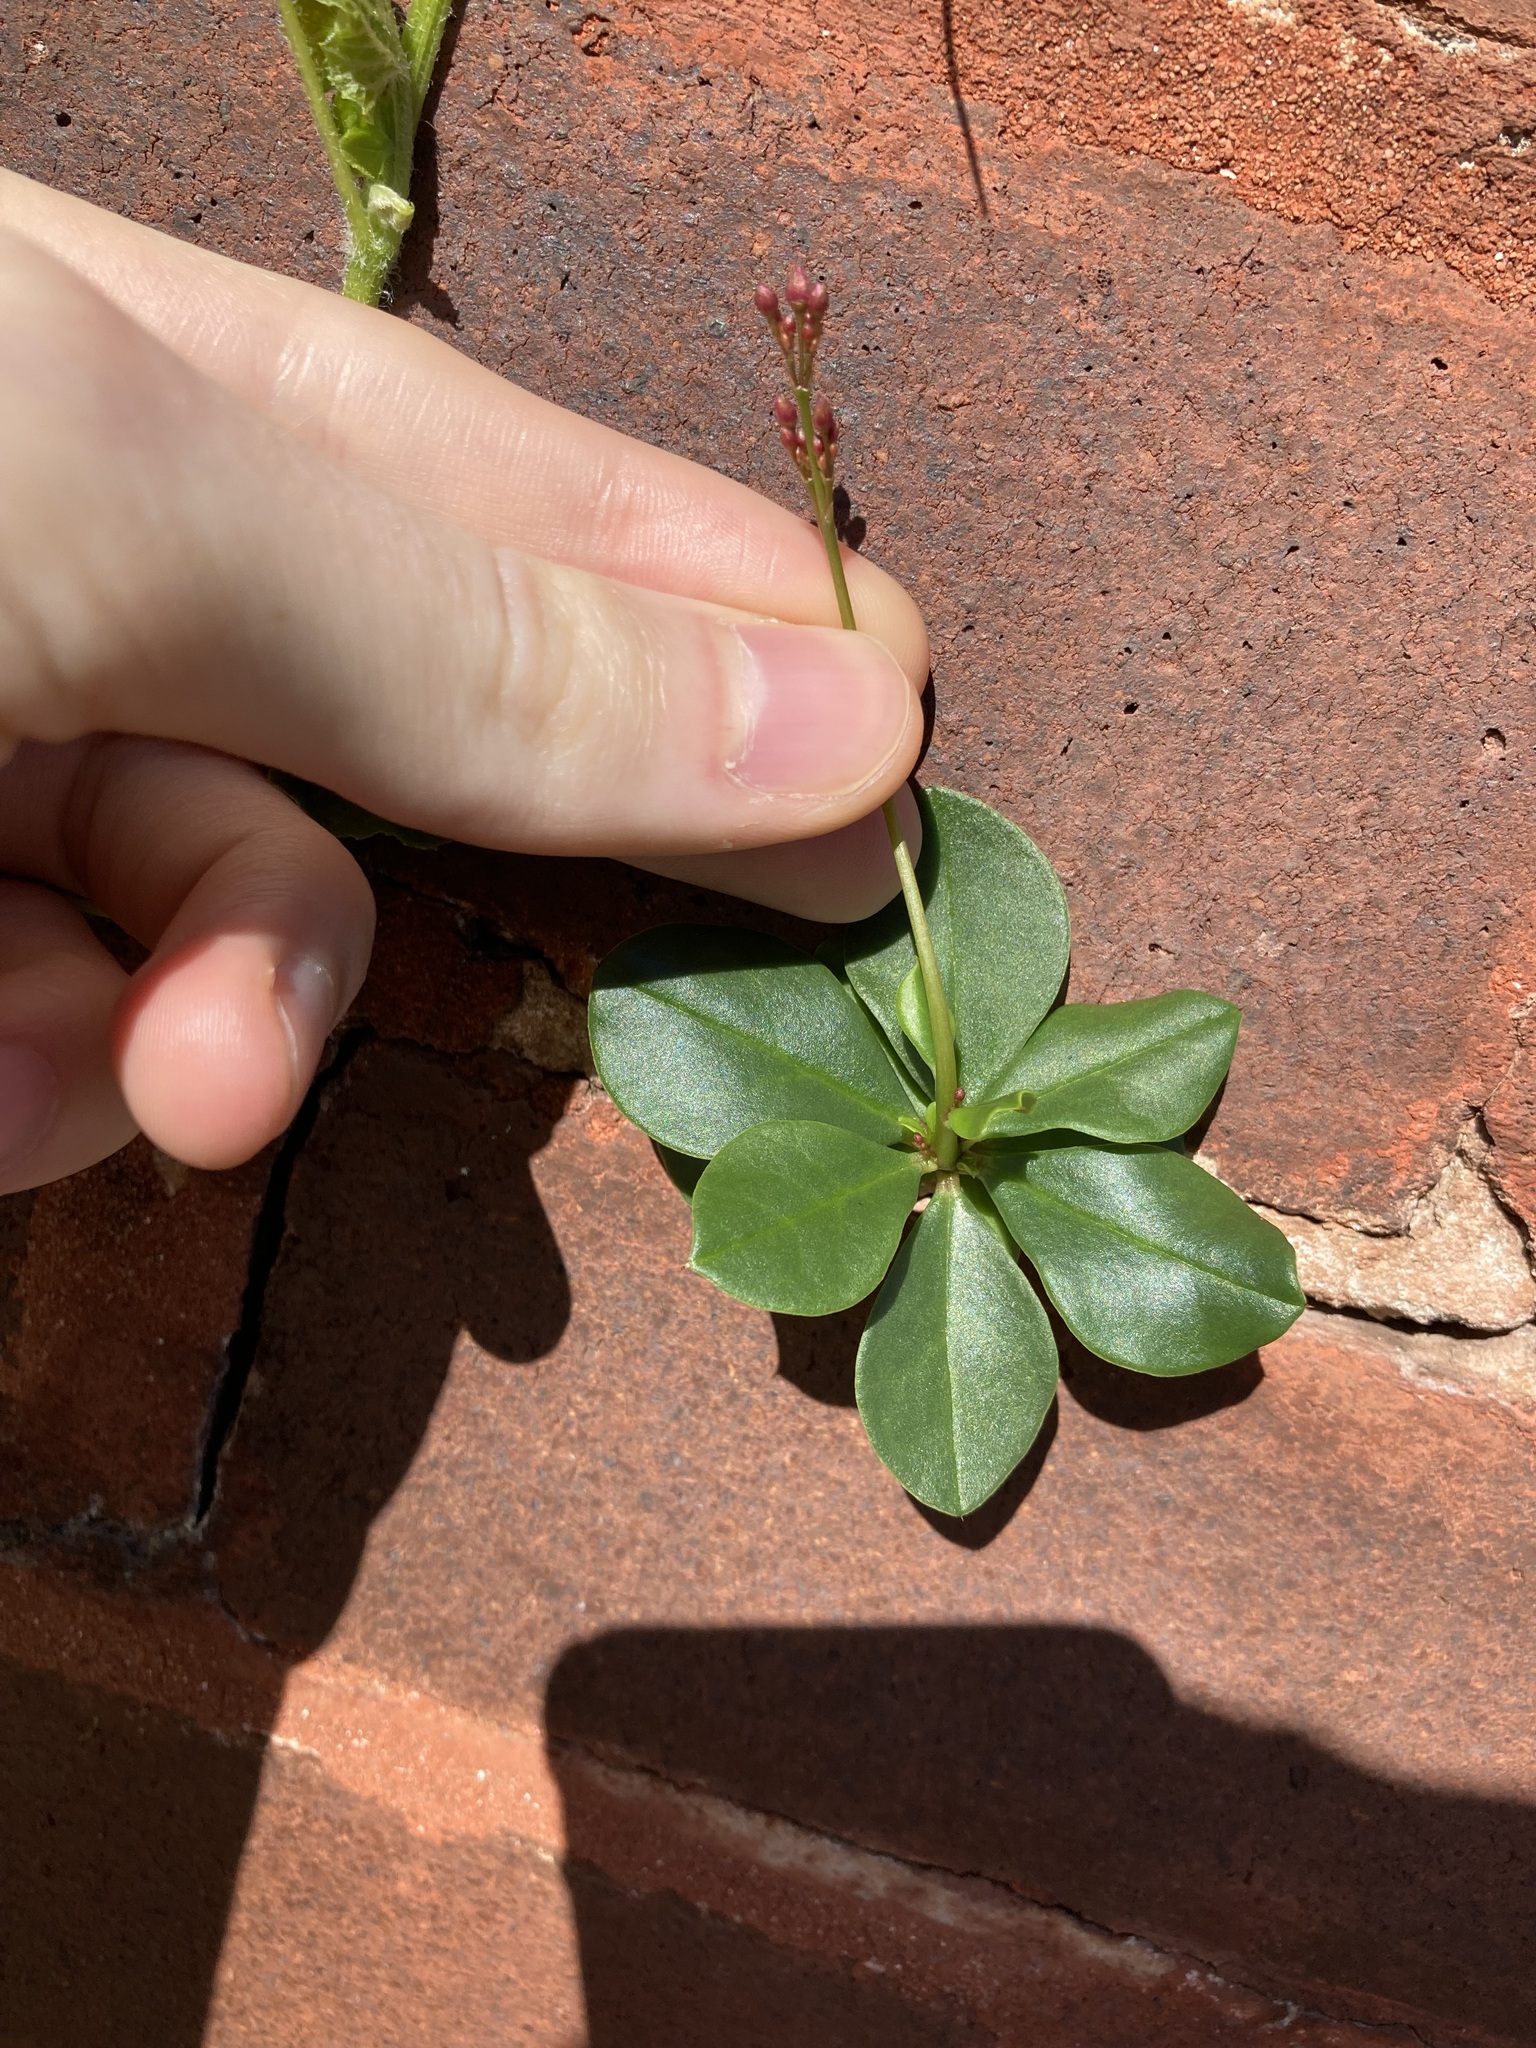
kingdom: Plantae
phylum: Tracheophyta
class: Magnoliopsida
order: Caryophyllales
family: Talinaceae
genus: Talinum
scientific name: Talinum paniculatum
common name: Jewels of opar
